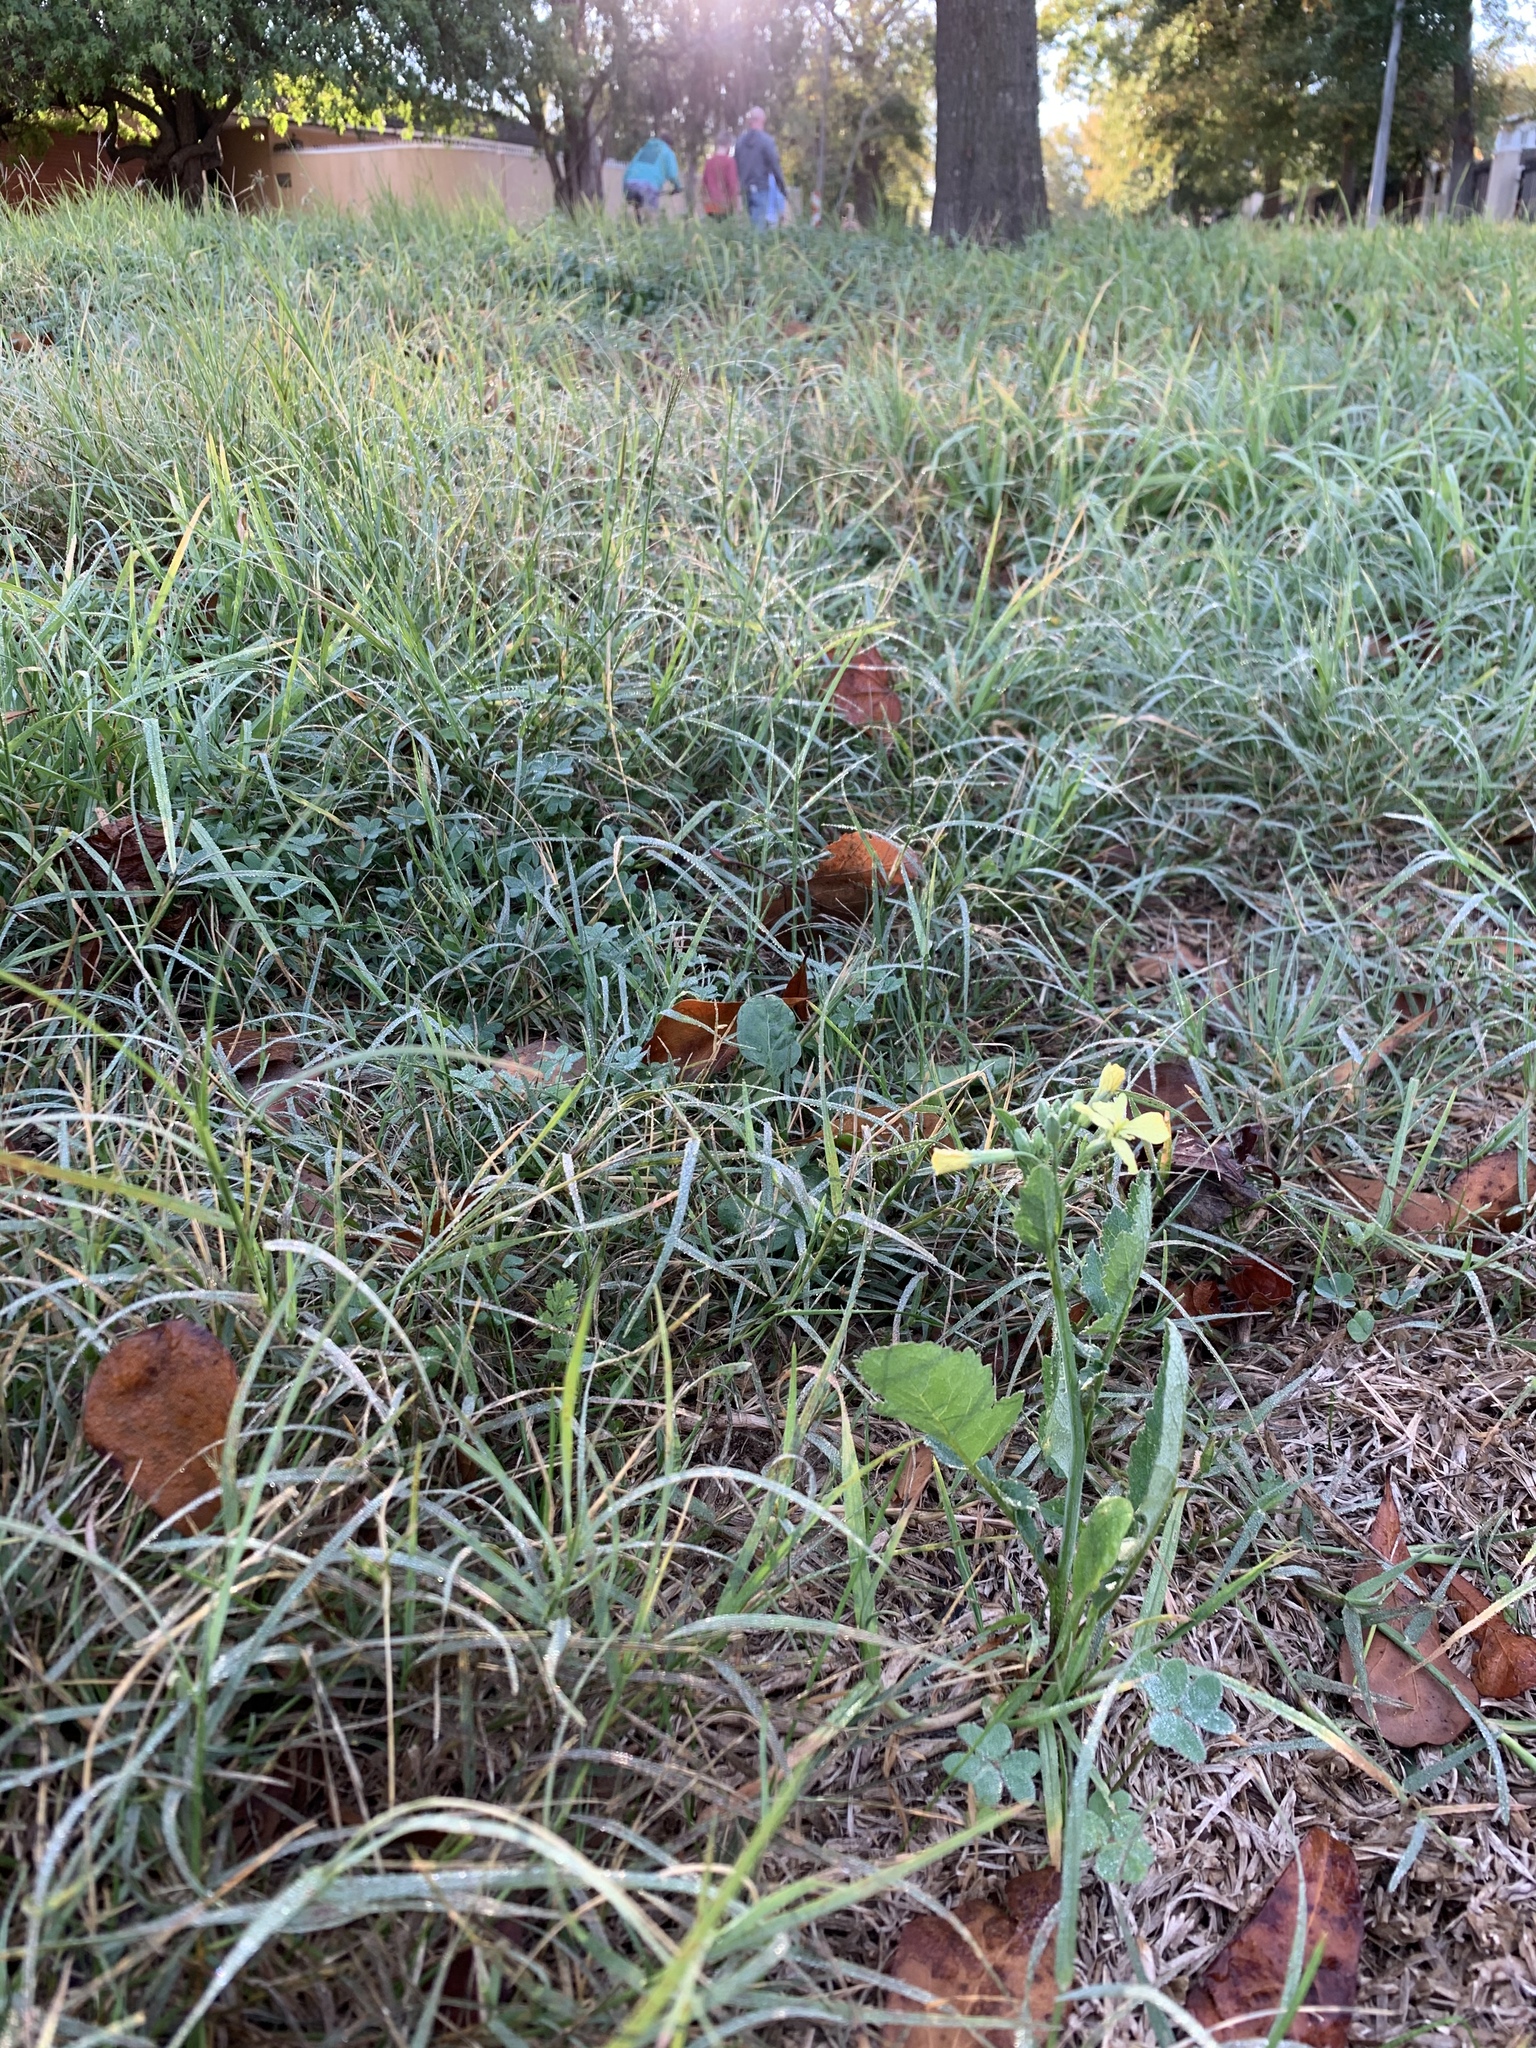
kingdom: Plantae
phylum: Tracheophyta
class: Magnoliopsida
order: Brassicales
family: Brassicaceae
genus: Raphanus
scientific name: Raphanus raphanistrum
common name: Wild radish
